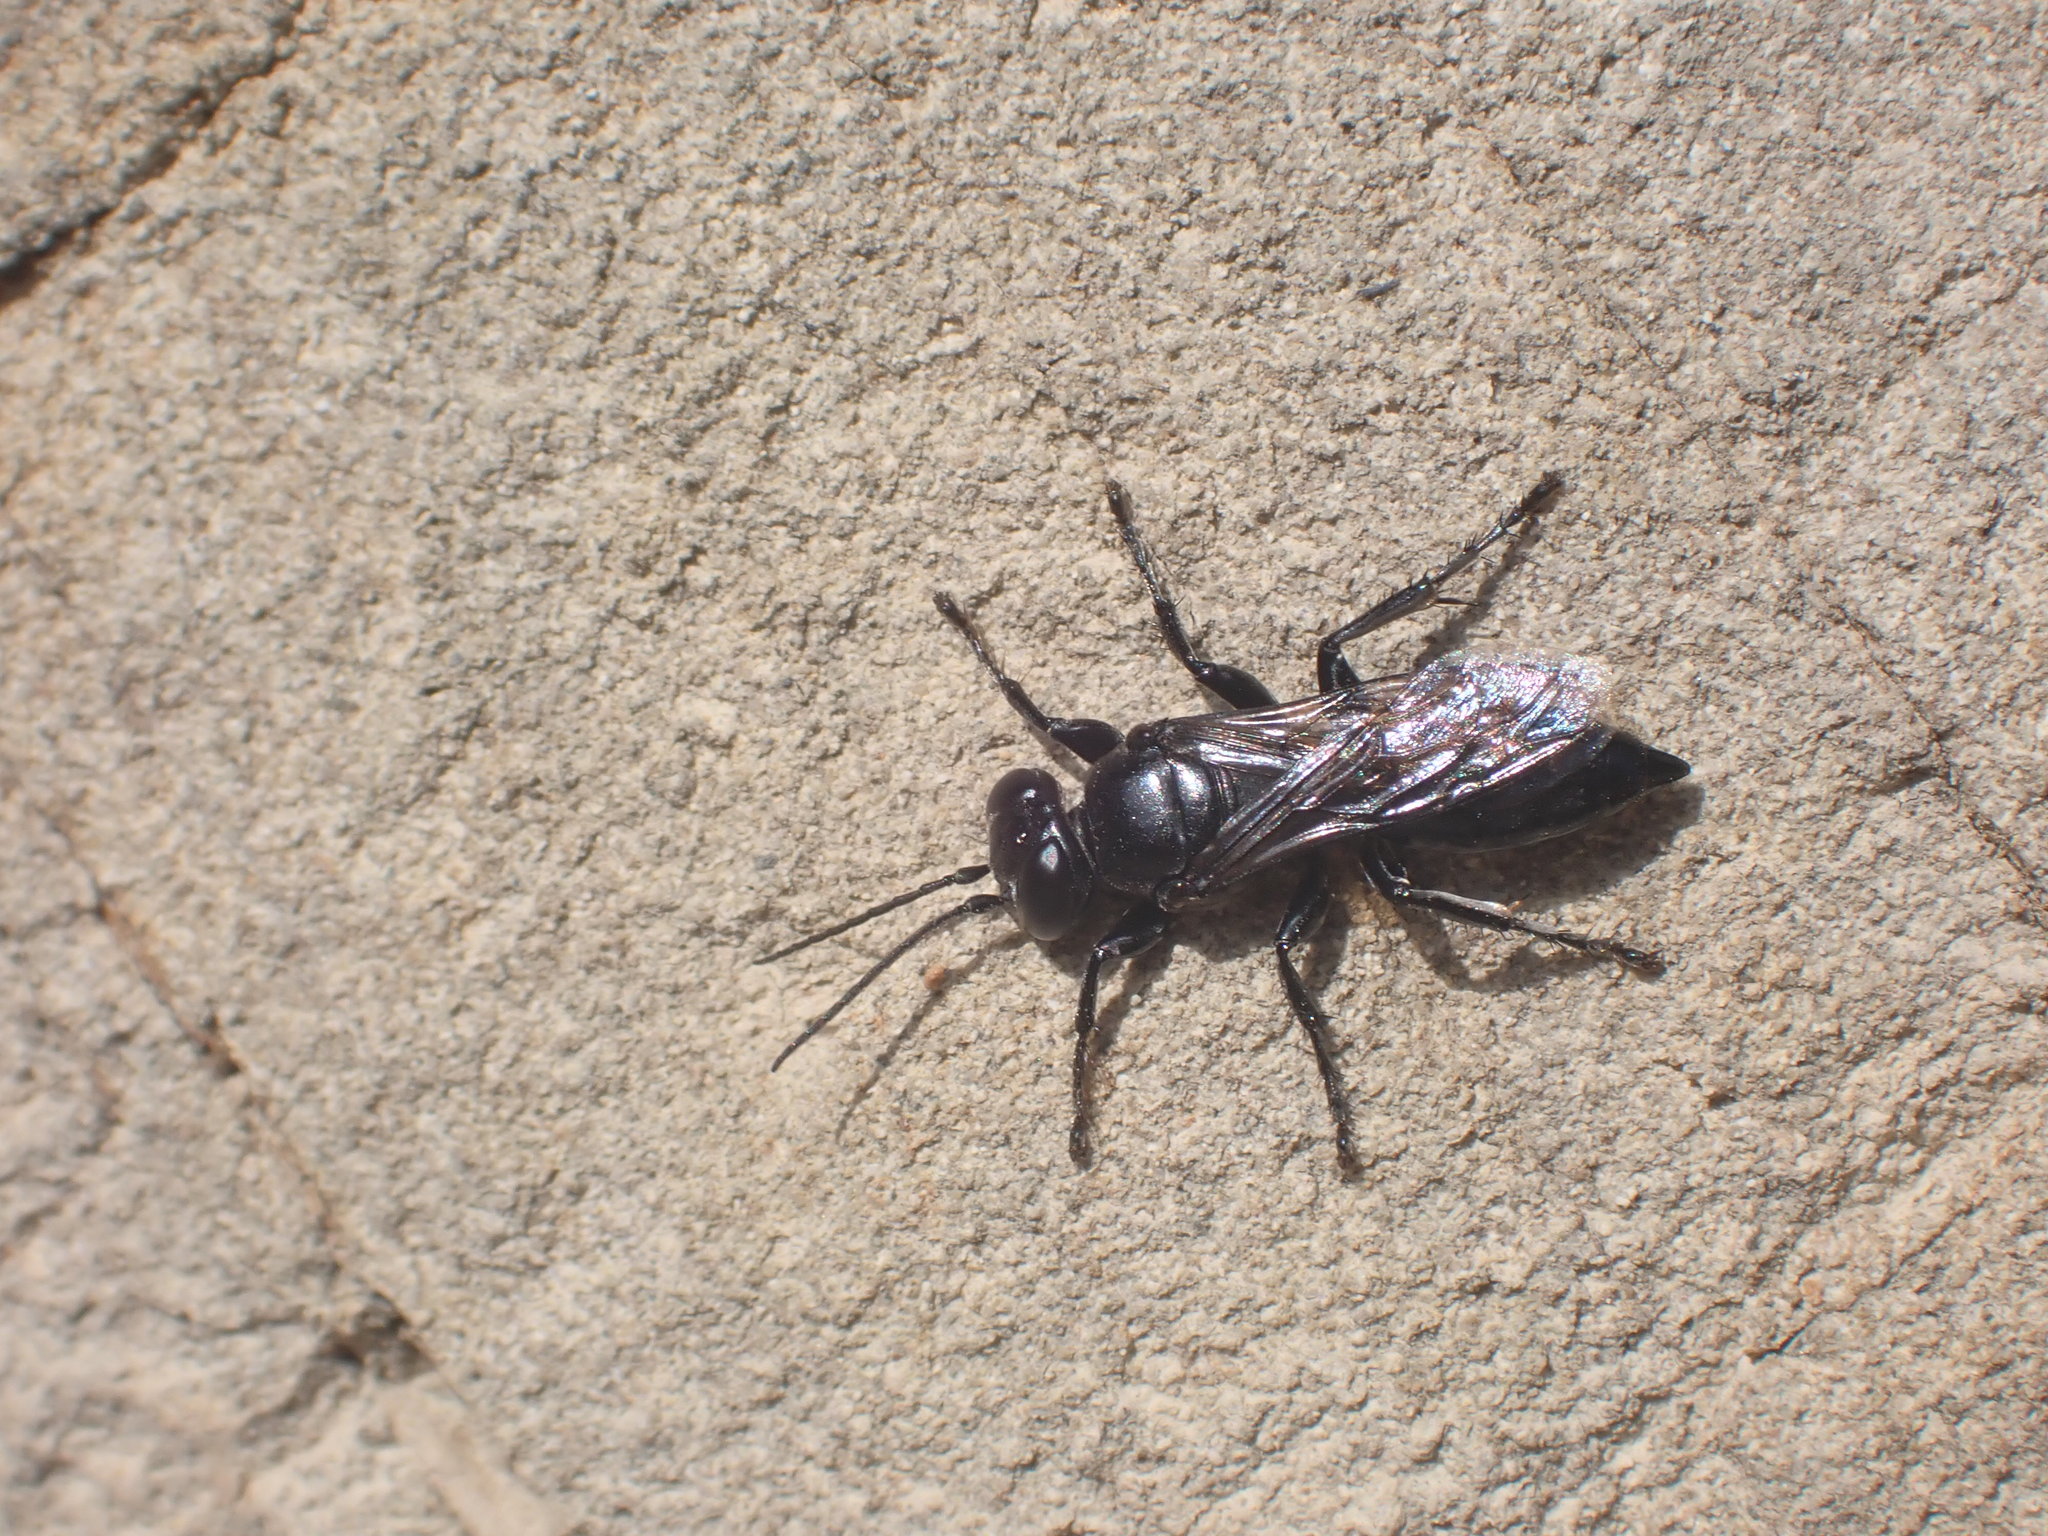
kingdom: Animalia
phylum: Arthropoda
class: Insecta
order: Hymenoptera
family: Crabronidae
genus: Tachysphex
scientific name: Tachysphex nigerrimus
